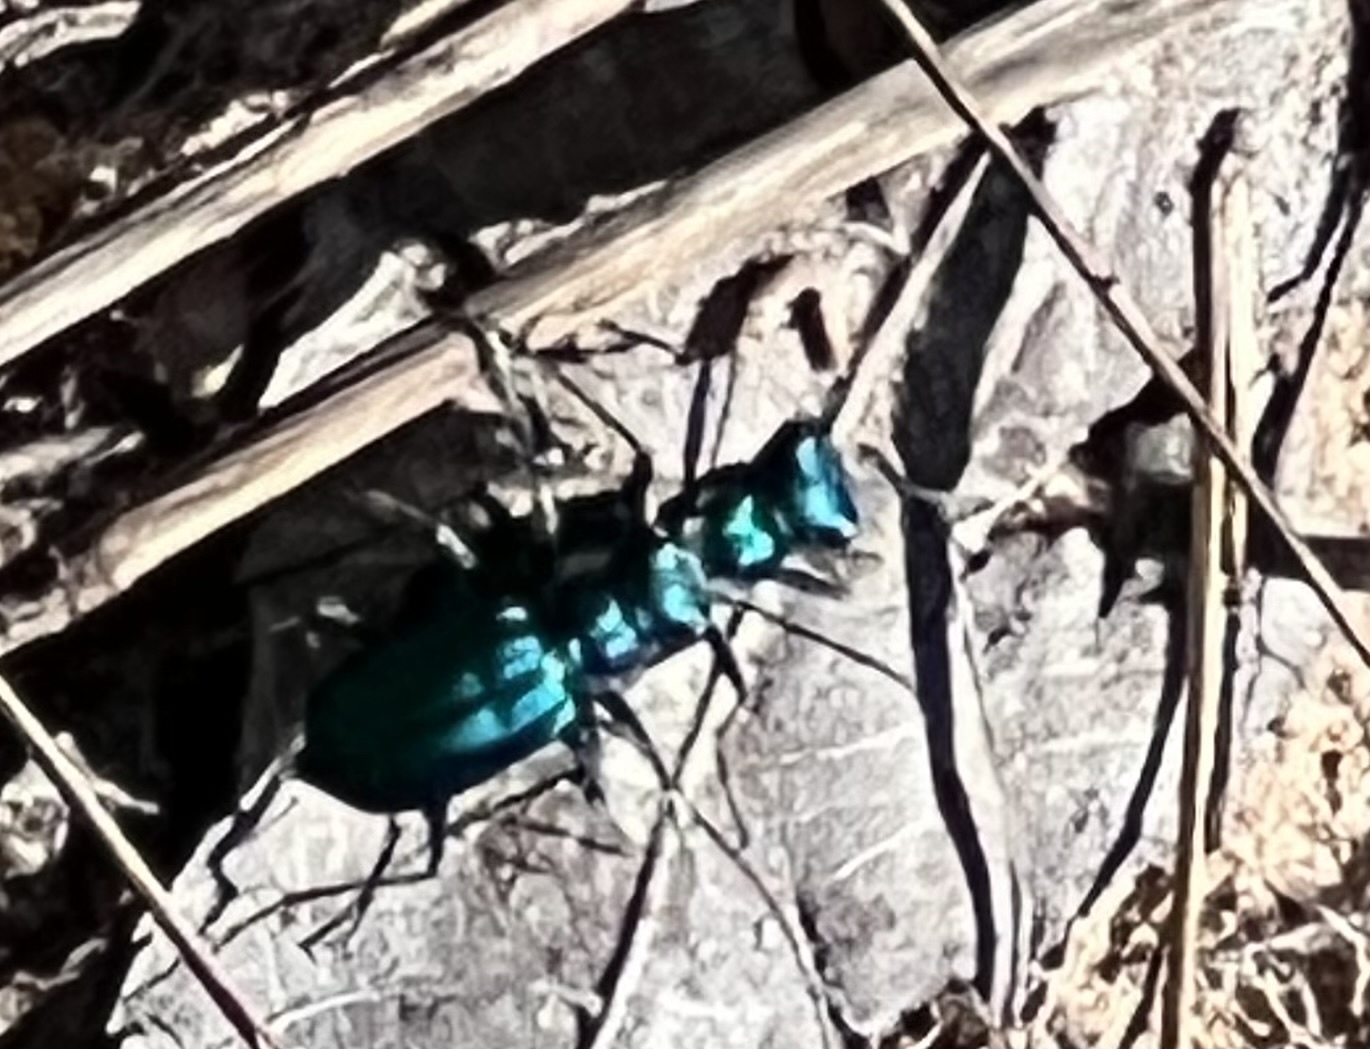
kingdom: Animalia
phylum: Arthropoda
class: Insecta
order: Coleoptera
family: Carabidae
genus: Cicindela
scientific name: Cicindela scutellaris
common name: Festive tiger beetle
